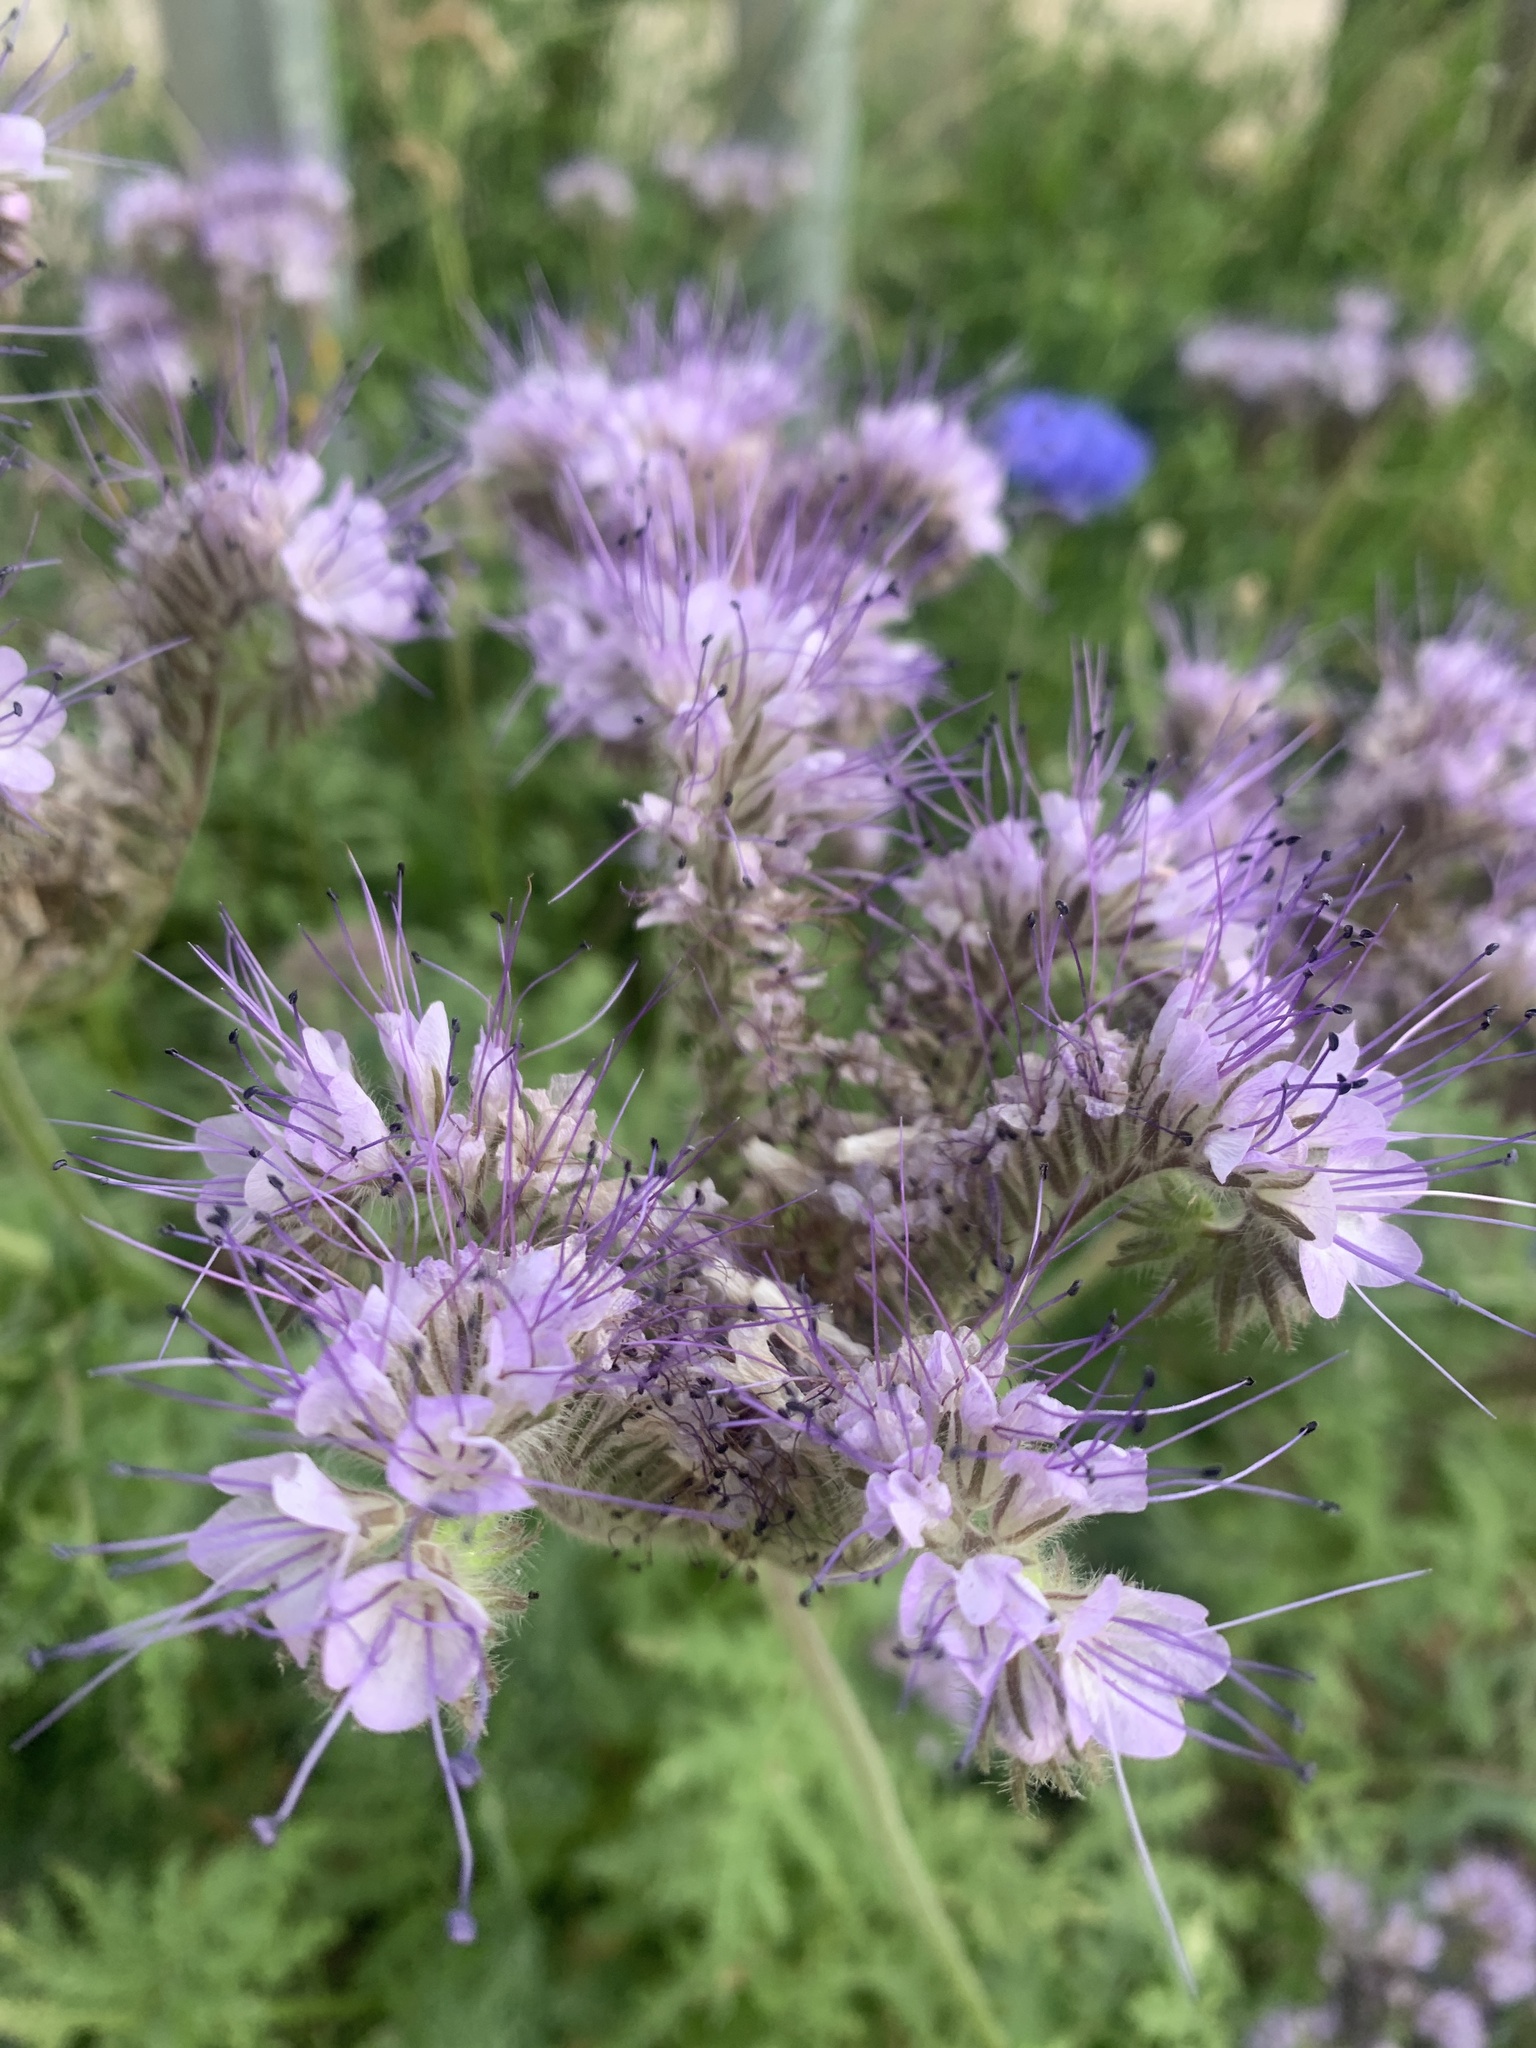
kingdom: Plantae
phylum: Tracheophyta
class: Magnoliopsida
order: Boraginales
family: Hydrophyllaceae
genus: Phacelia
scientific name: Phacelia tanacetifolia
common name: Phacelia
